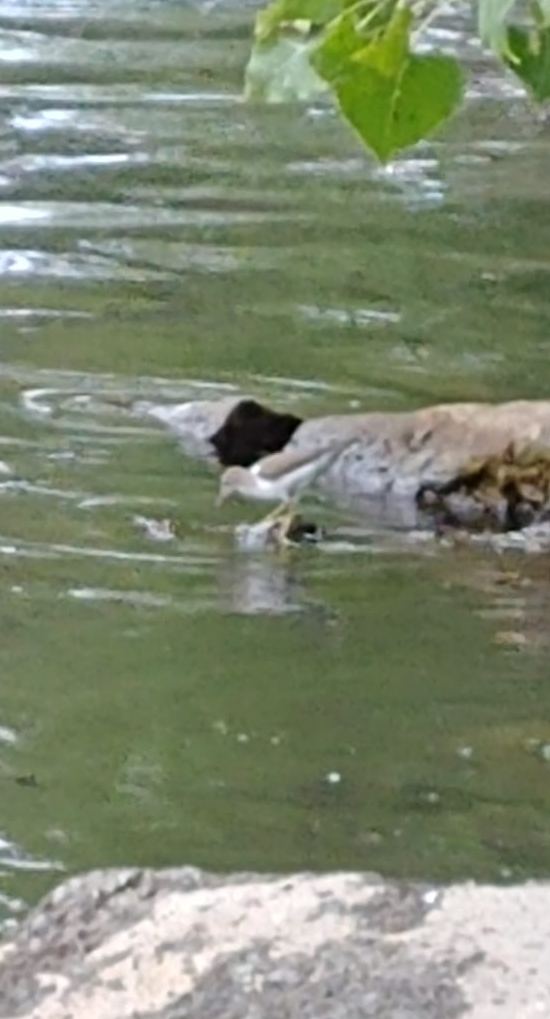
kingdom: Animalia
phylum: Chordata
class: Aves
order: Charadriiformes
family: Scolopacidae
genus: Actitis
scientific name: Actitis macularius
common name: Spotted sandpiper
